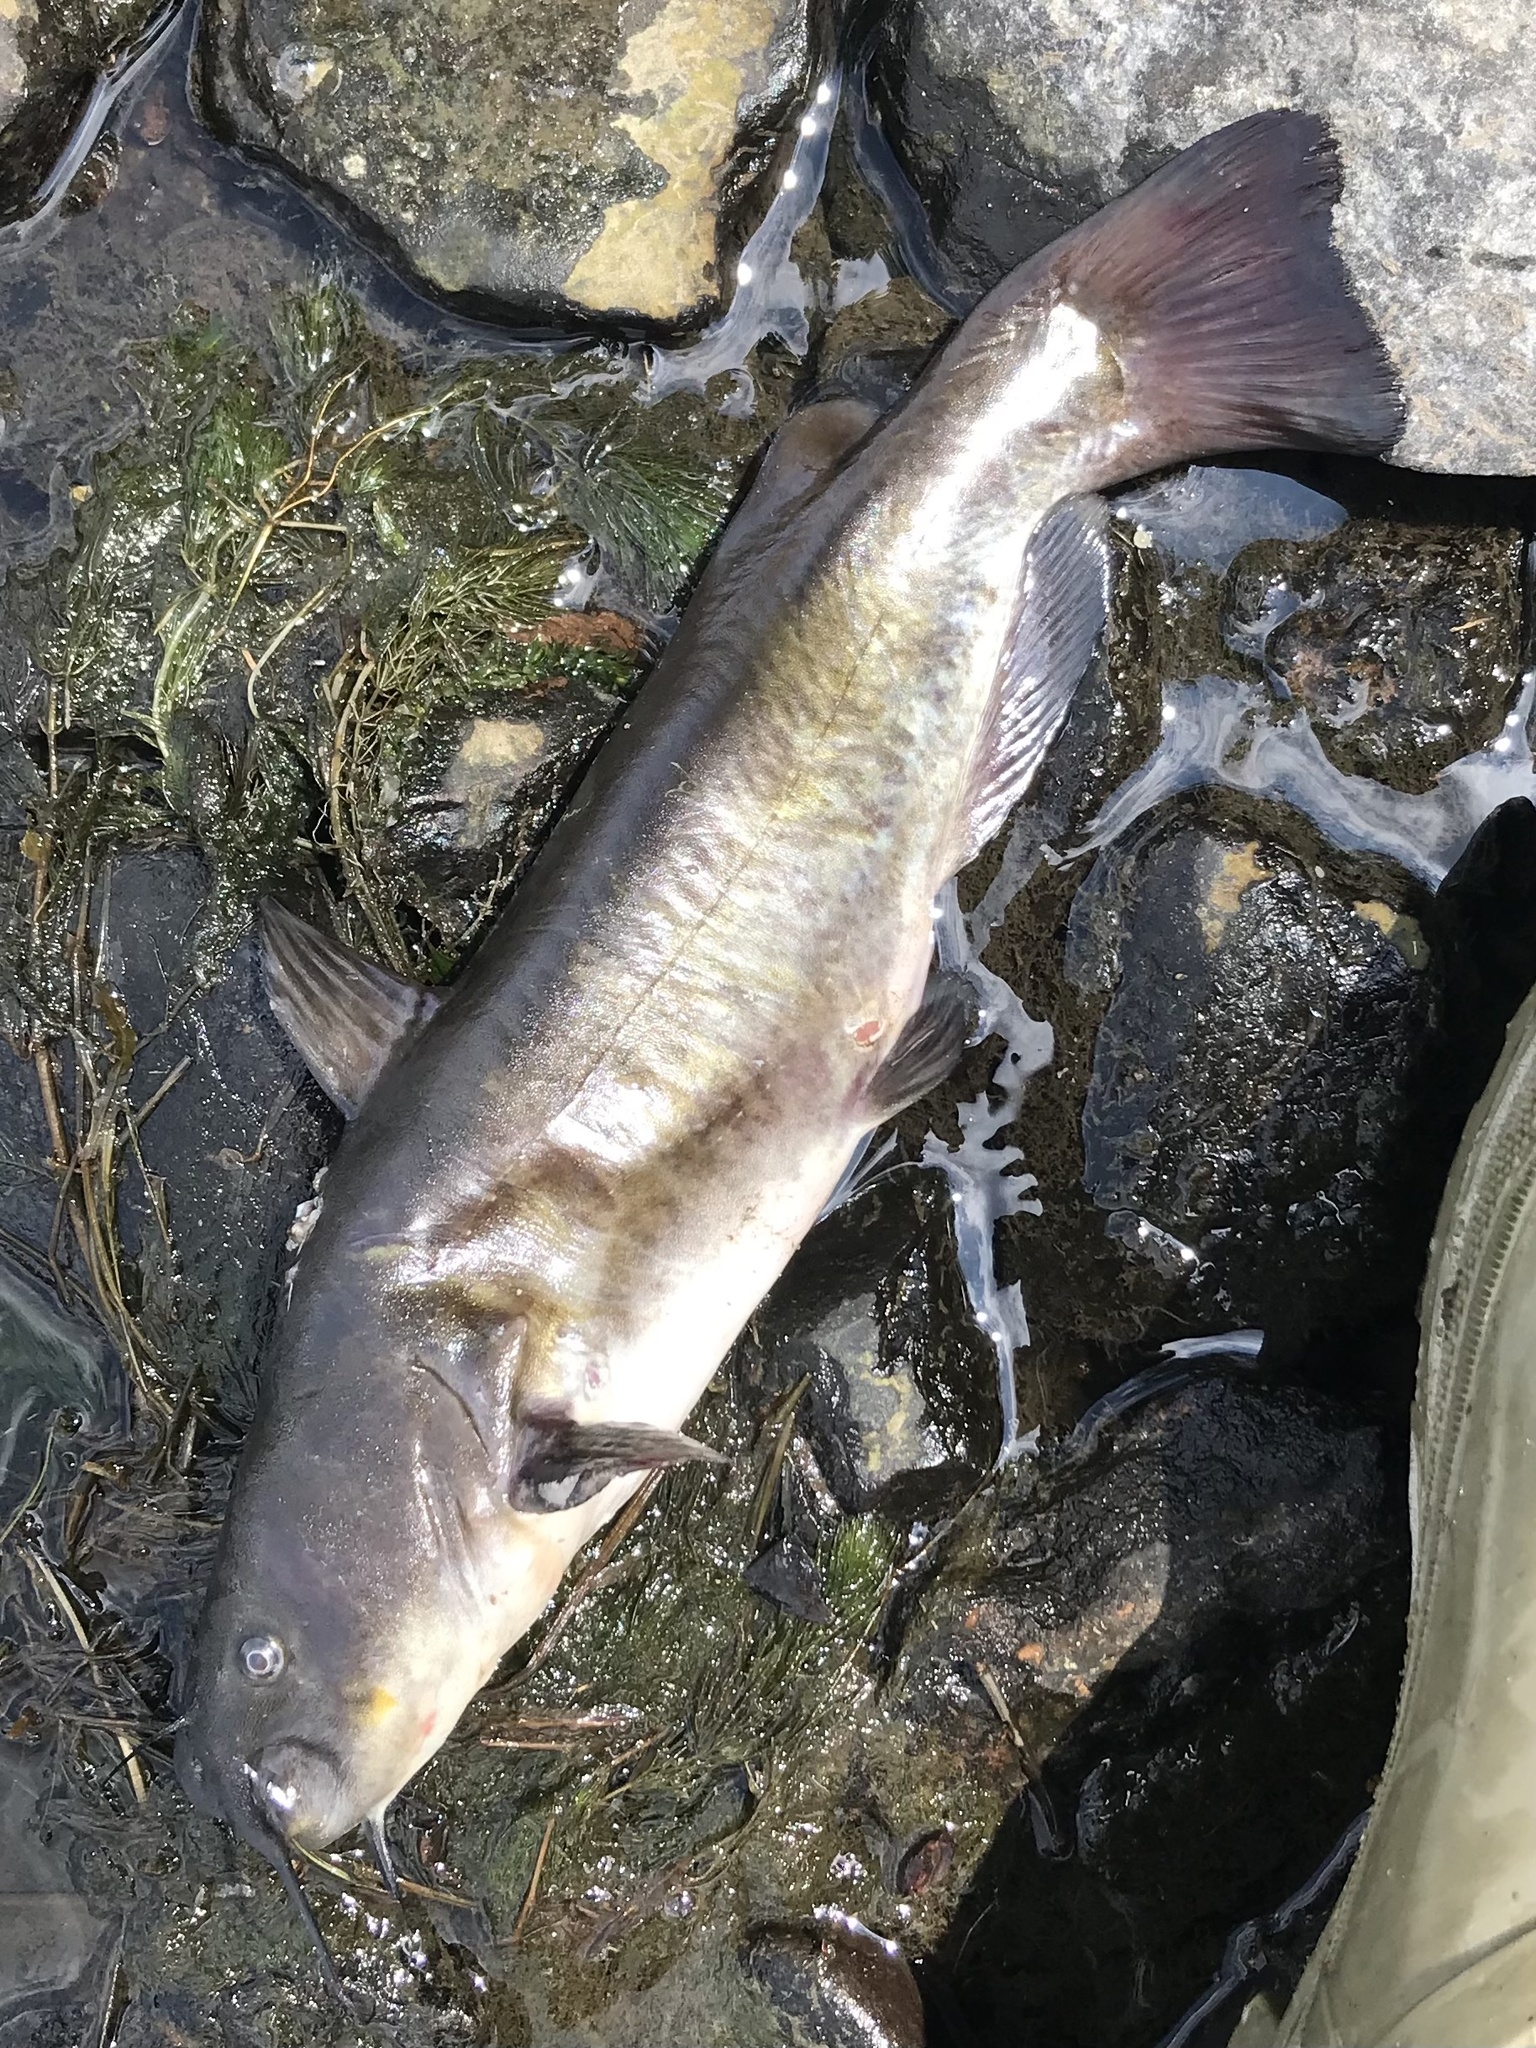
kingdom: Animalia
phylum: Chordata
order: Siluriformes
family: Ictaluridae
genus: Ameiurus
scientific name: Ameiurus nebulosus
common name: Brown bullhead
